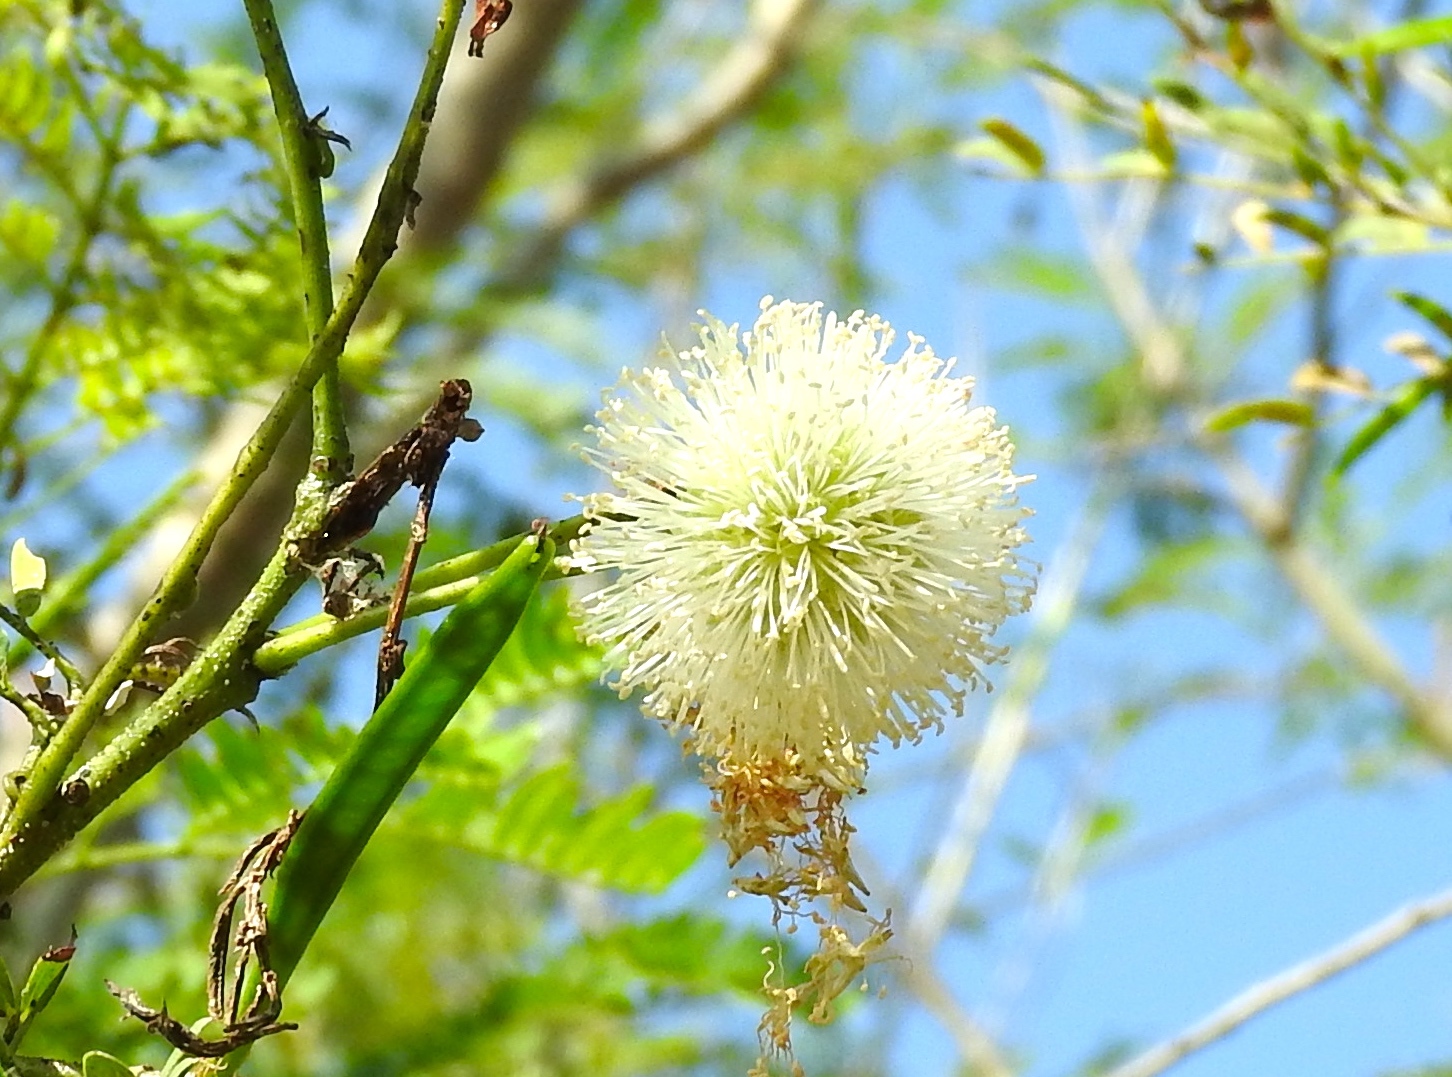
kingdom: Plantae
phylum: Tracheophyta
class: Magnoliopsida
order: Fabales
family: Fabaceae
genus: Leucaena
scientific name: Leucaena leucocephala
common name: White leadtree
